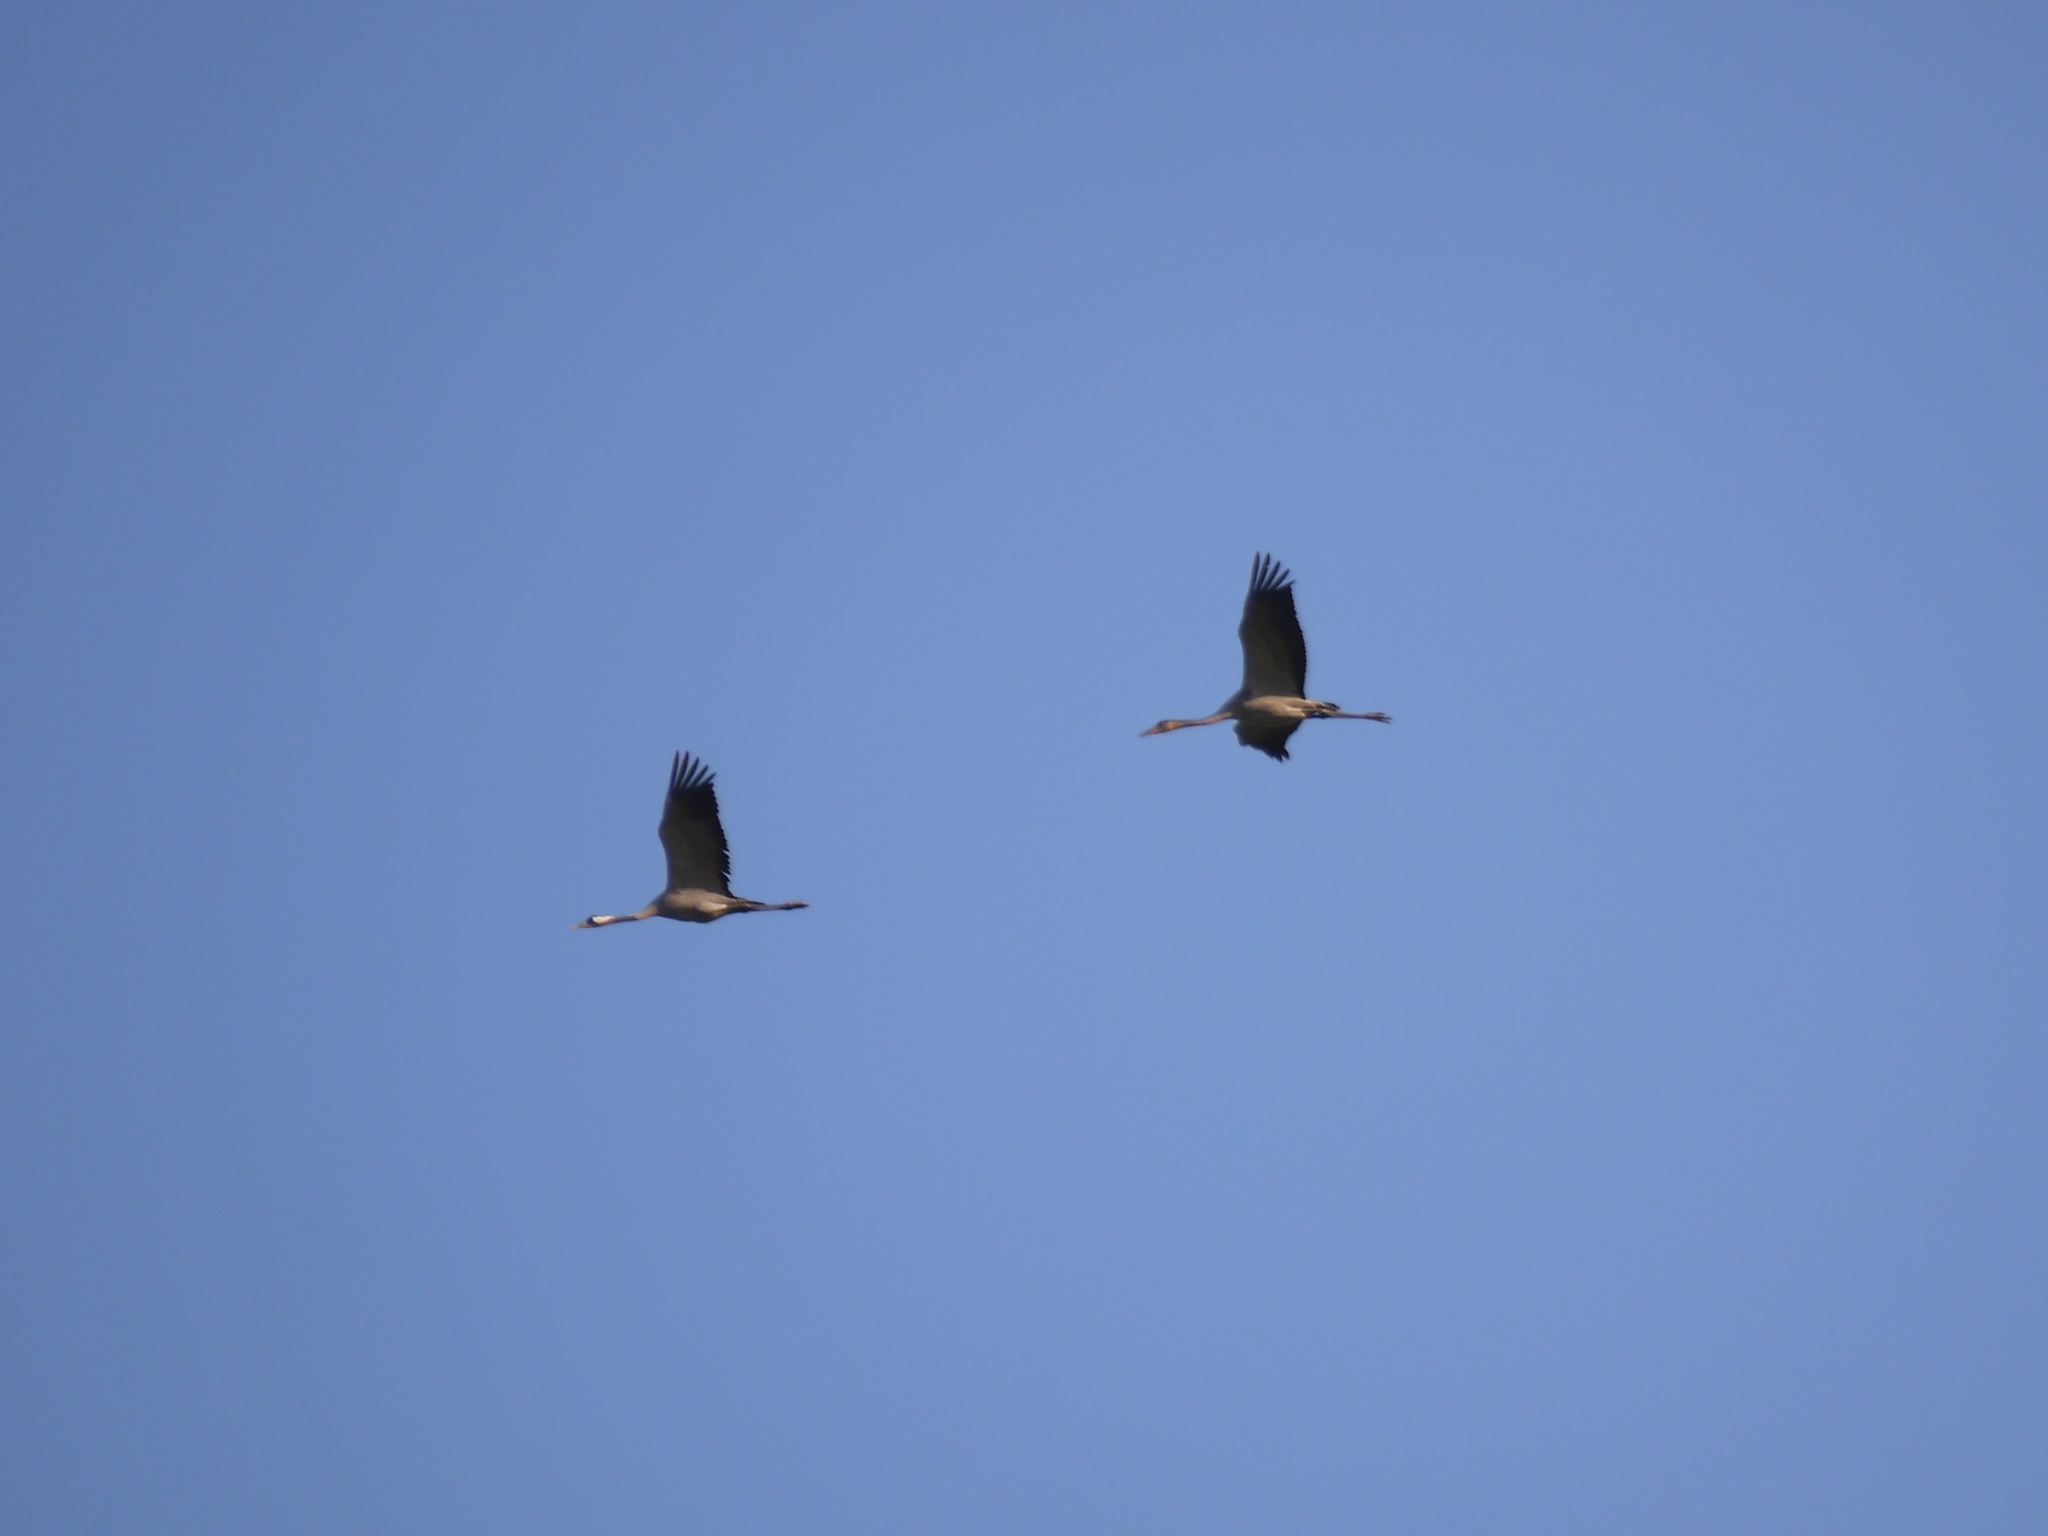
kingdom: Animalia
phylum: Chordata
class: Aves
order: Gruiformes
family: Gruidae
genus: Grus
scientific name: Grus grus
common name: Common crane
